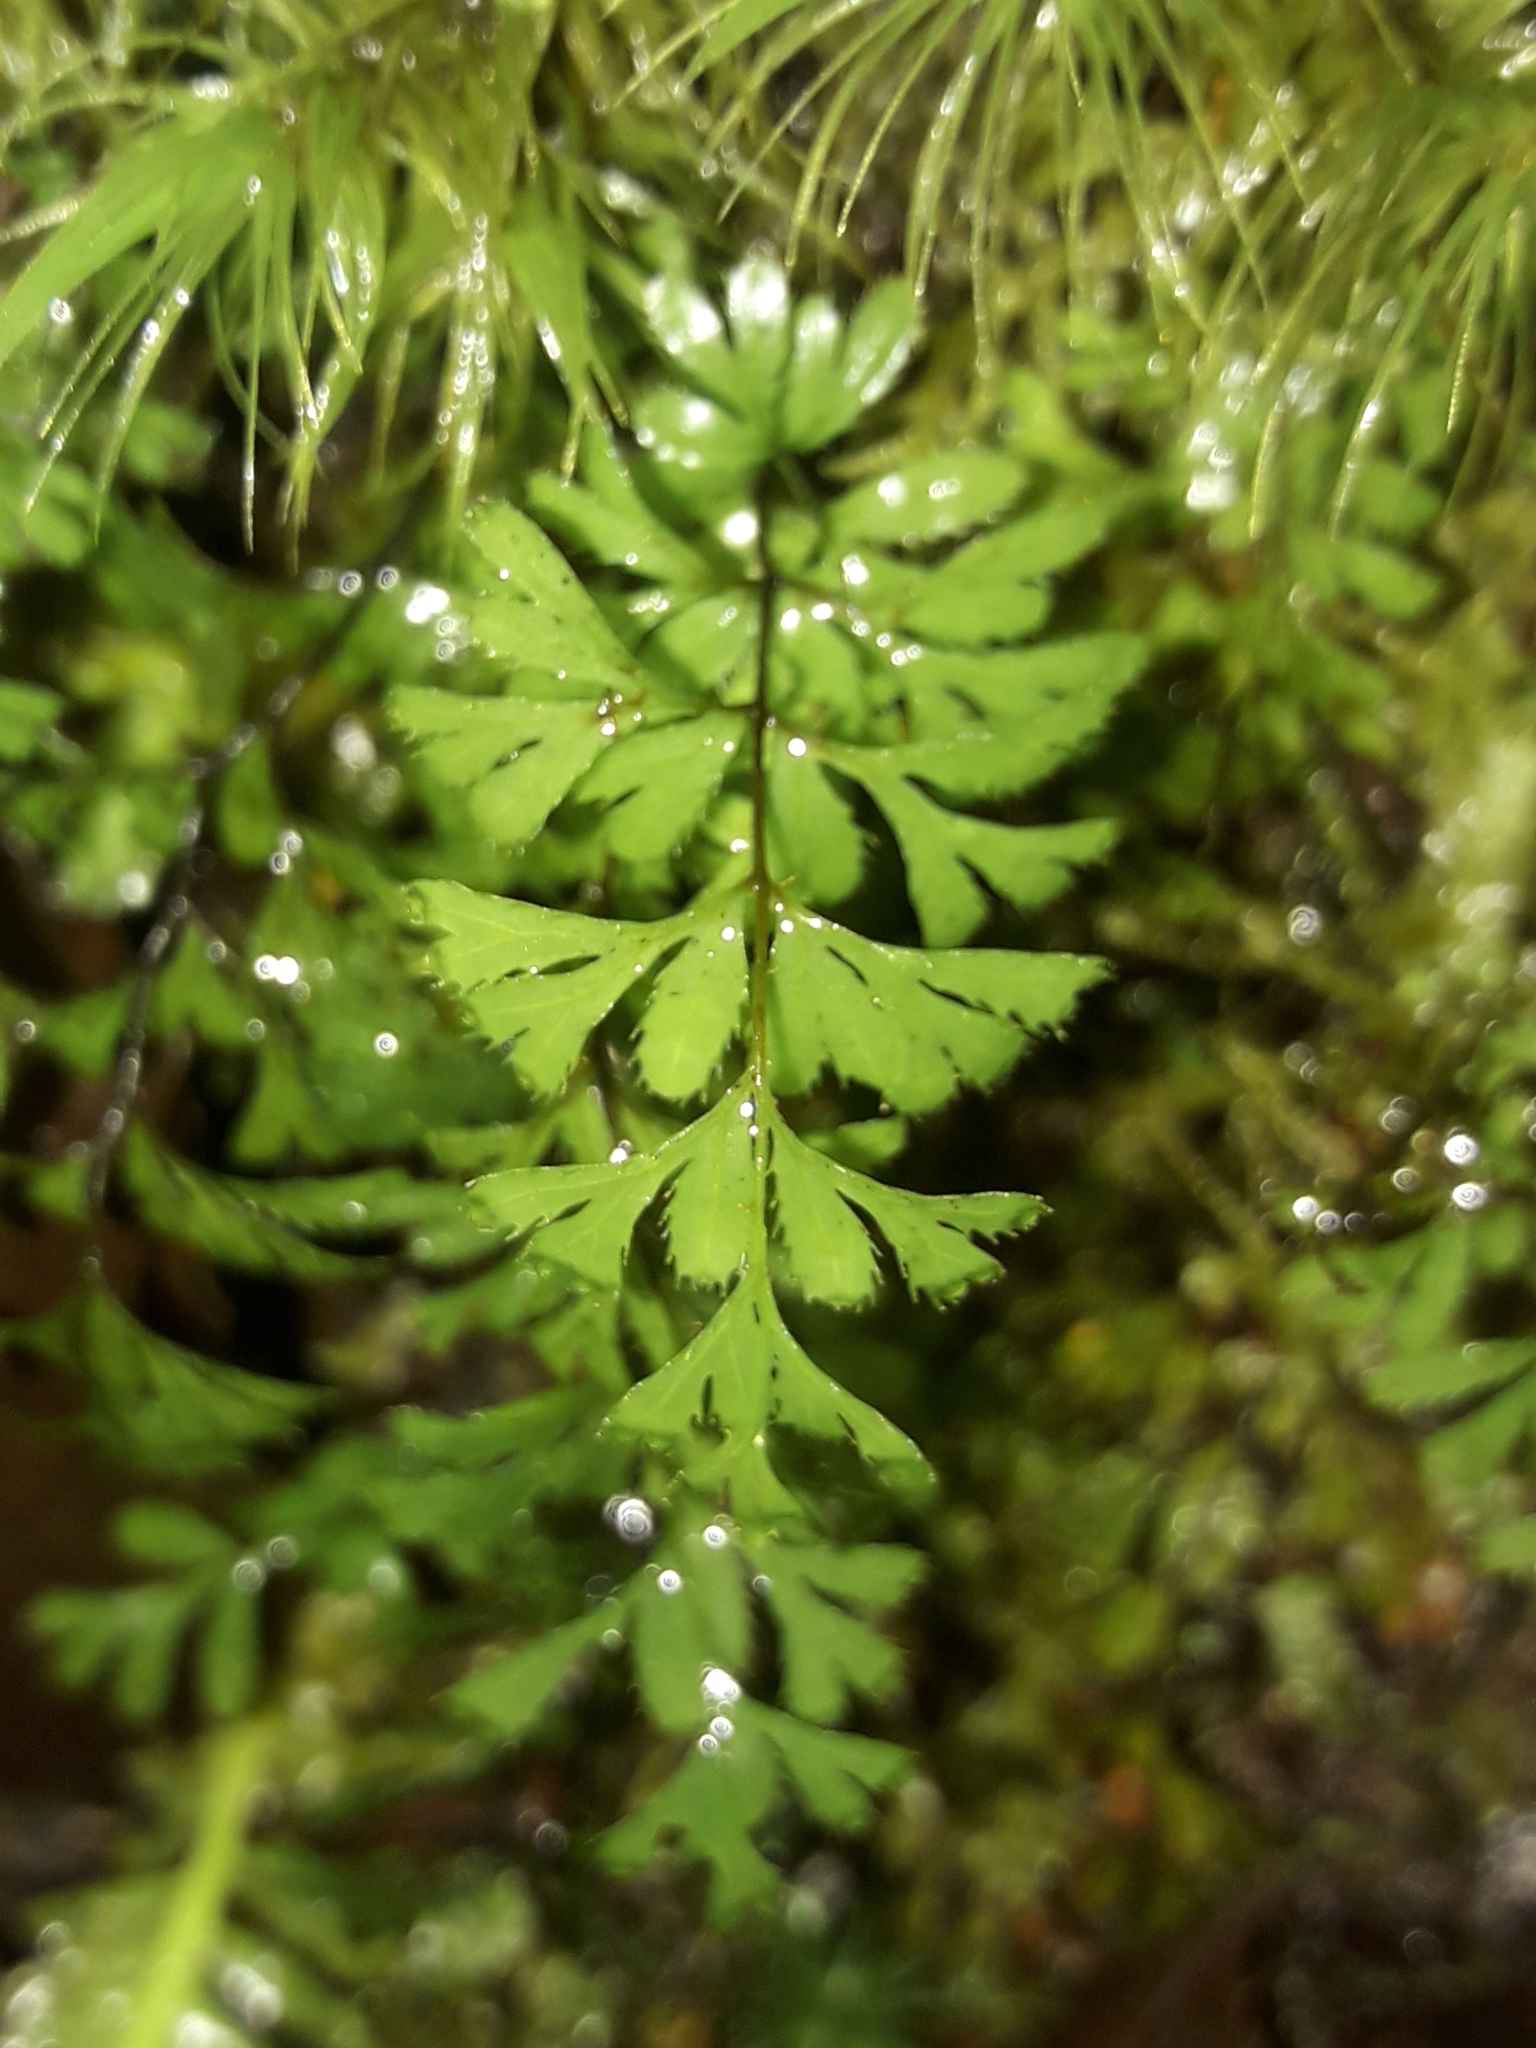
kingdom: Plantae
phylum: Tracheophyta
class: Polypodiopsida
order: Hymenophyllales
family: Hymenophyllaceae
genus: Hymenophyllum
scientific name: Hymenophyllum revolutum
